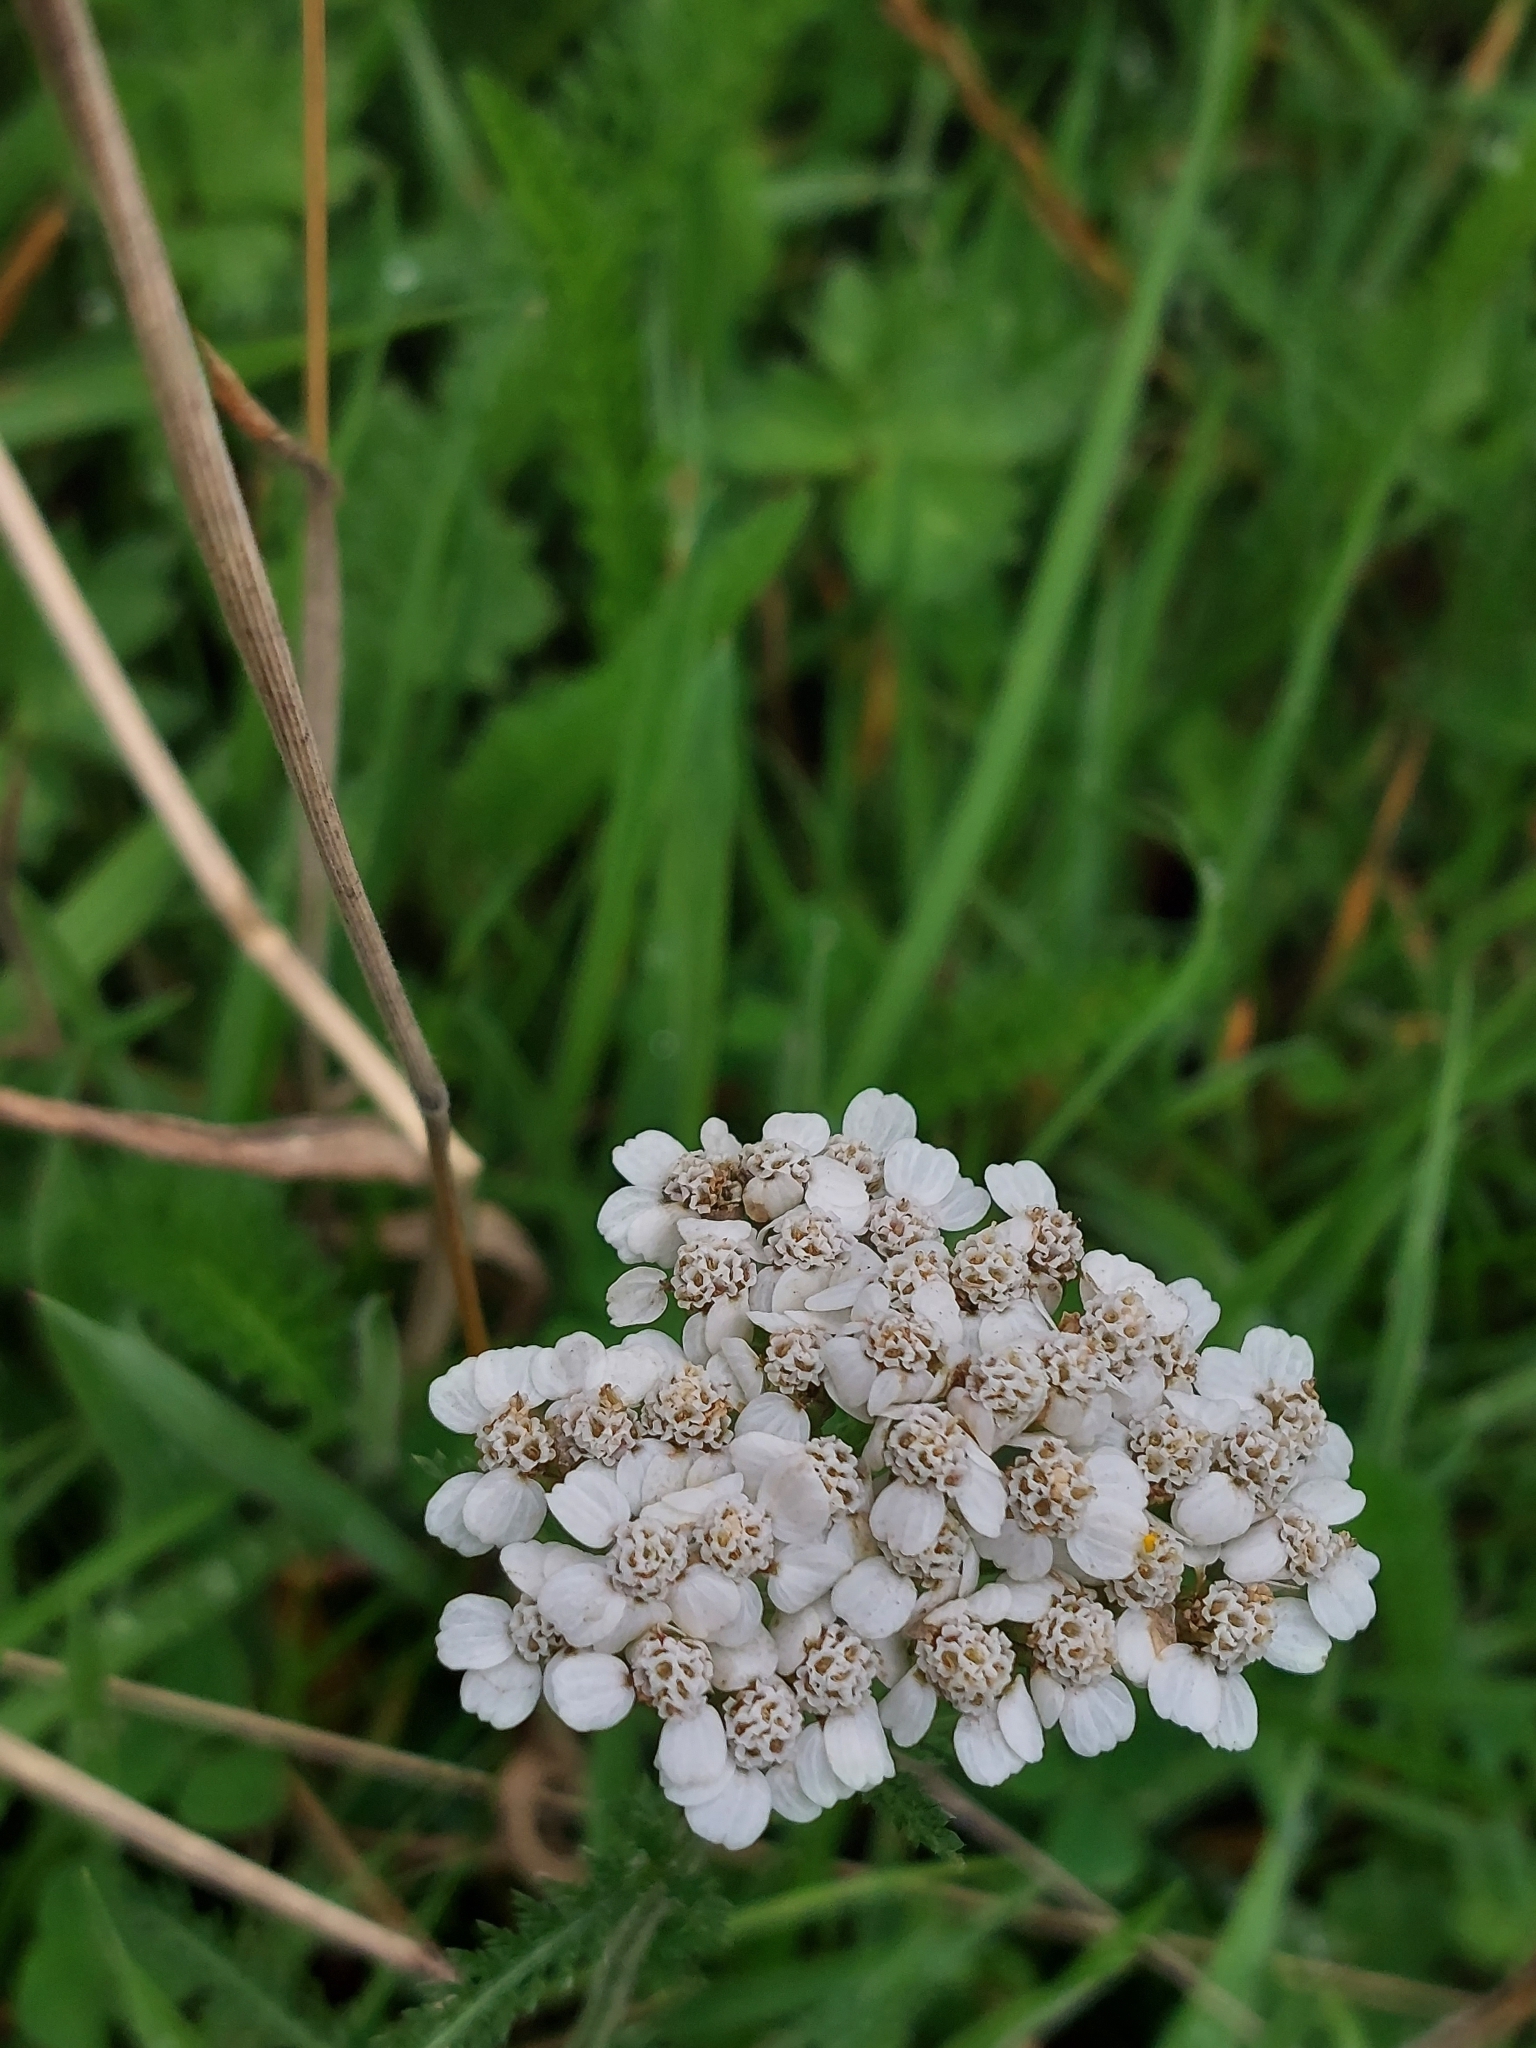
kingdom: Plantae
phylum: Tracheophyta
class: Magnoliopsida
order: Asterales
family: Asteraceae
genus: Achillea
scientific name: Achillea millefolium
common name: Yarrow
